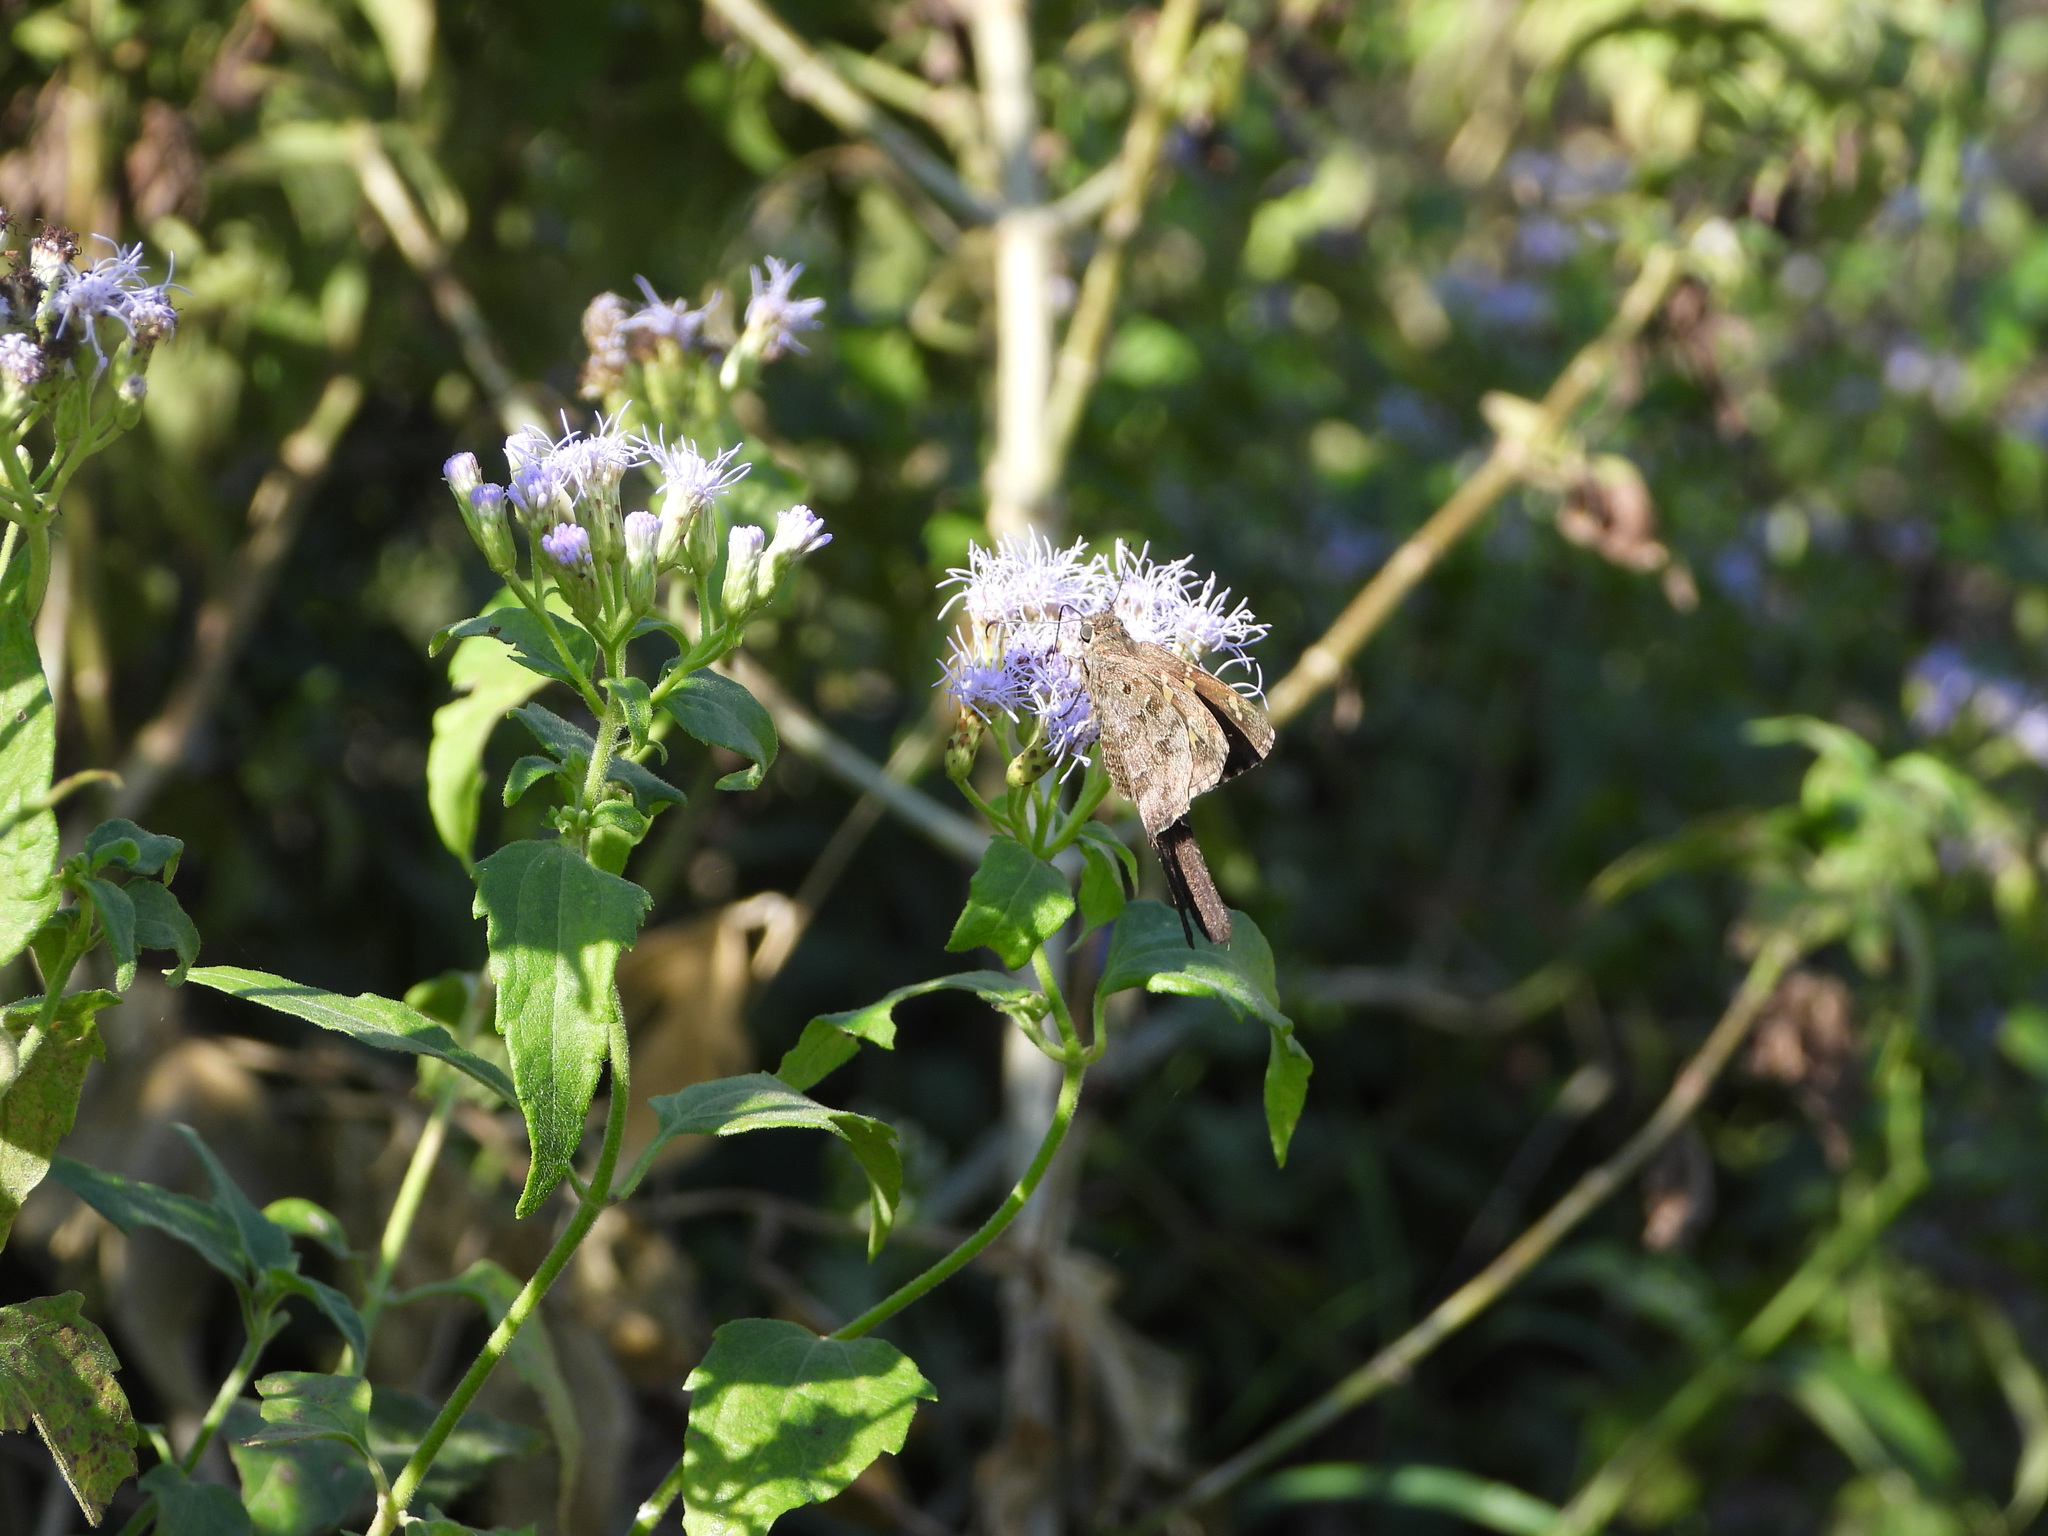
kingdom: Animalia
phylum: Arthropoda
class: Insecta
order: Lepidoptera
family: Hesperiidae
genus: Thorybes
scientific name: Thorybes
